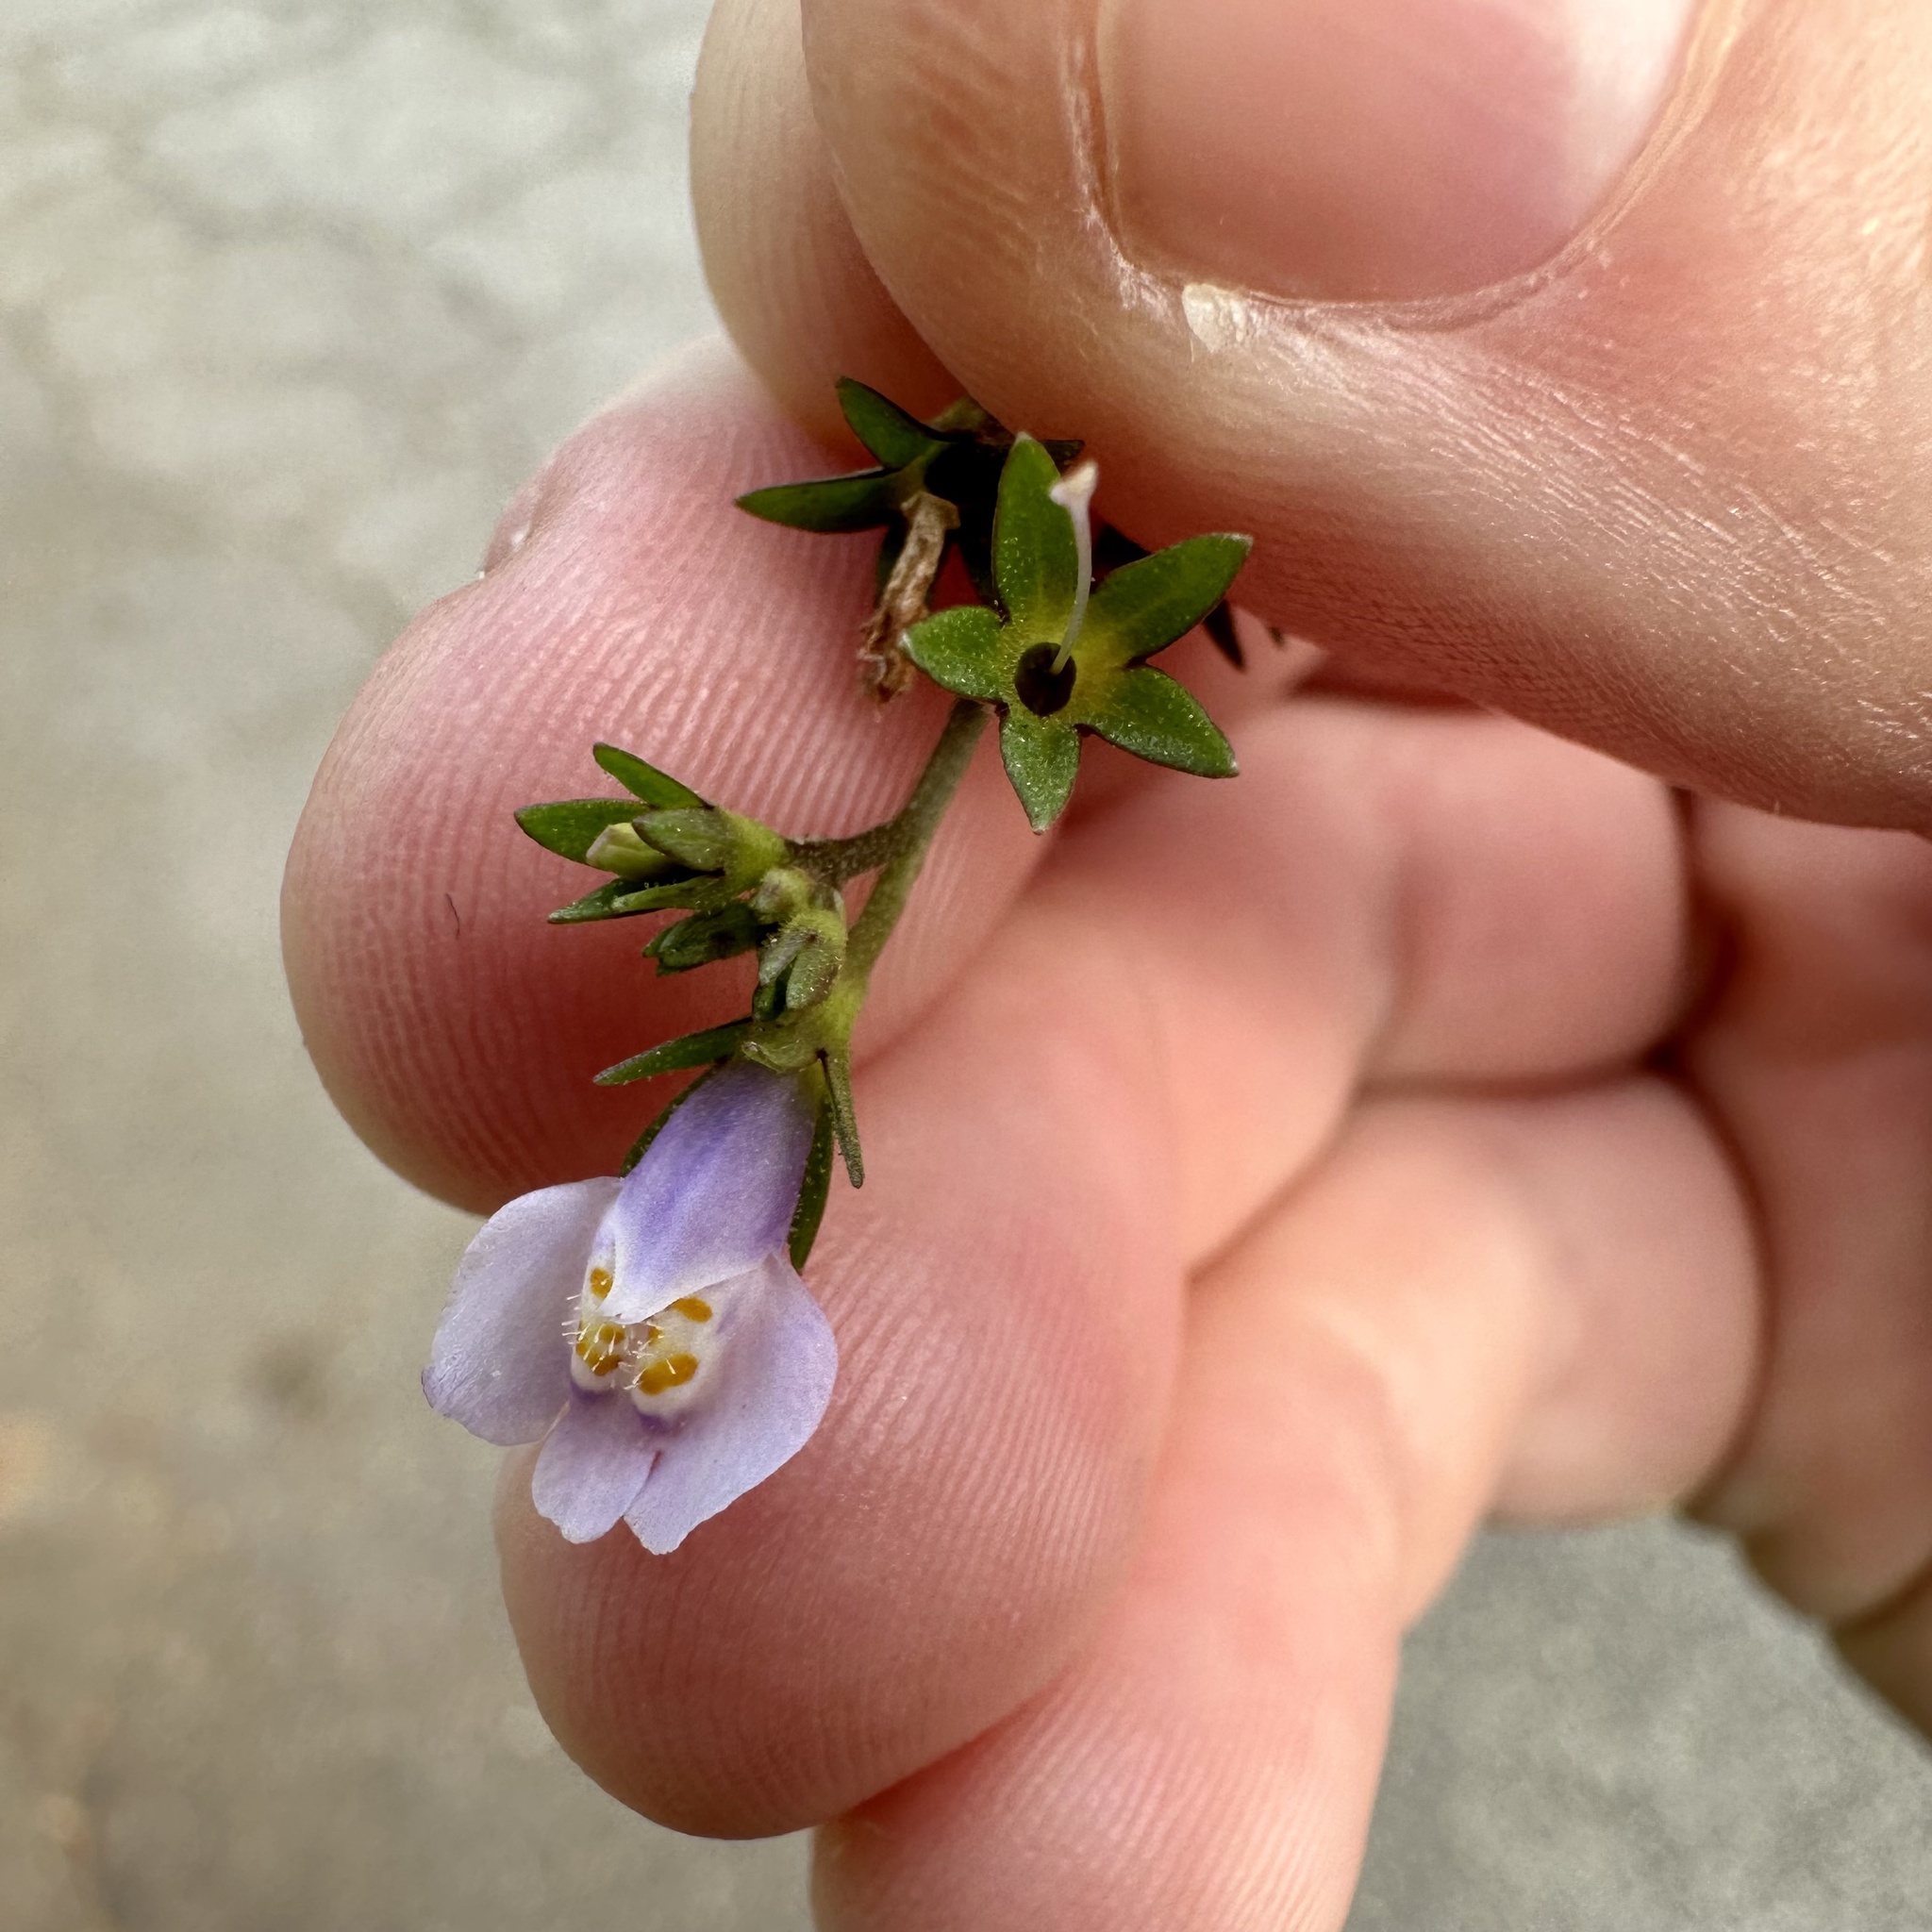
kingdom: Plantae
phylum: Tracheophyta
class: Magnoliopsida
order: Lamiales
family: Mazaceae
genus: Mazus
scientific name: Mazus pumilus
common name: Japanese mazus
